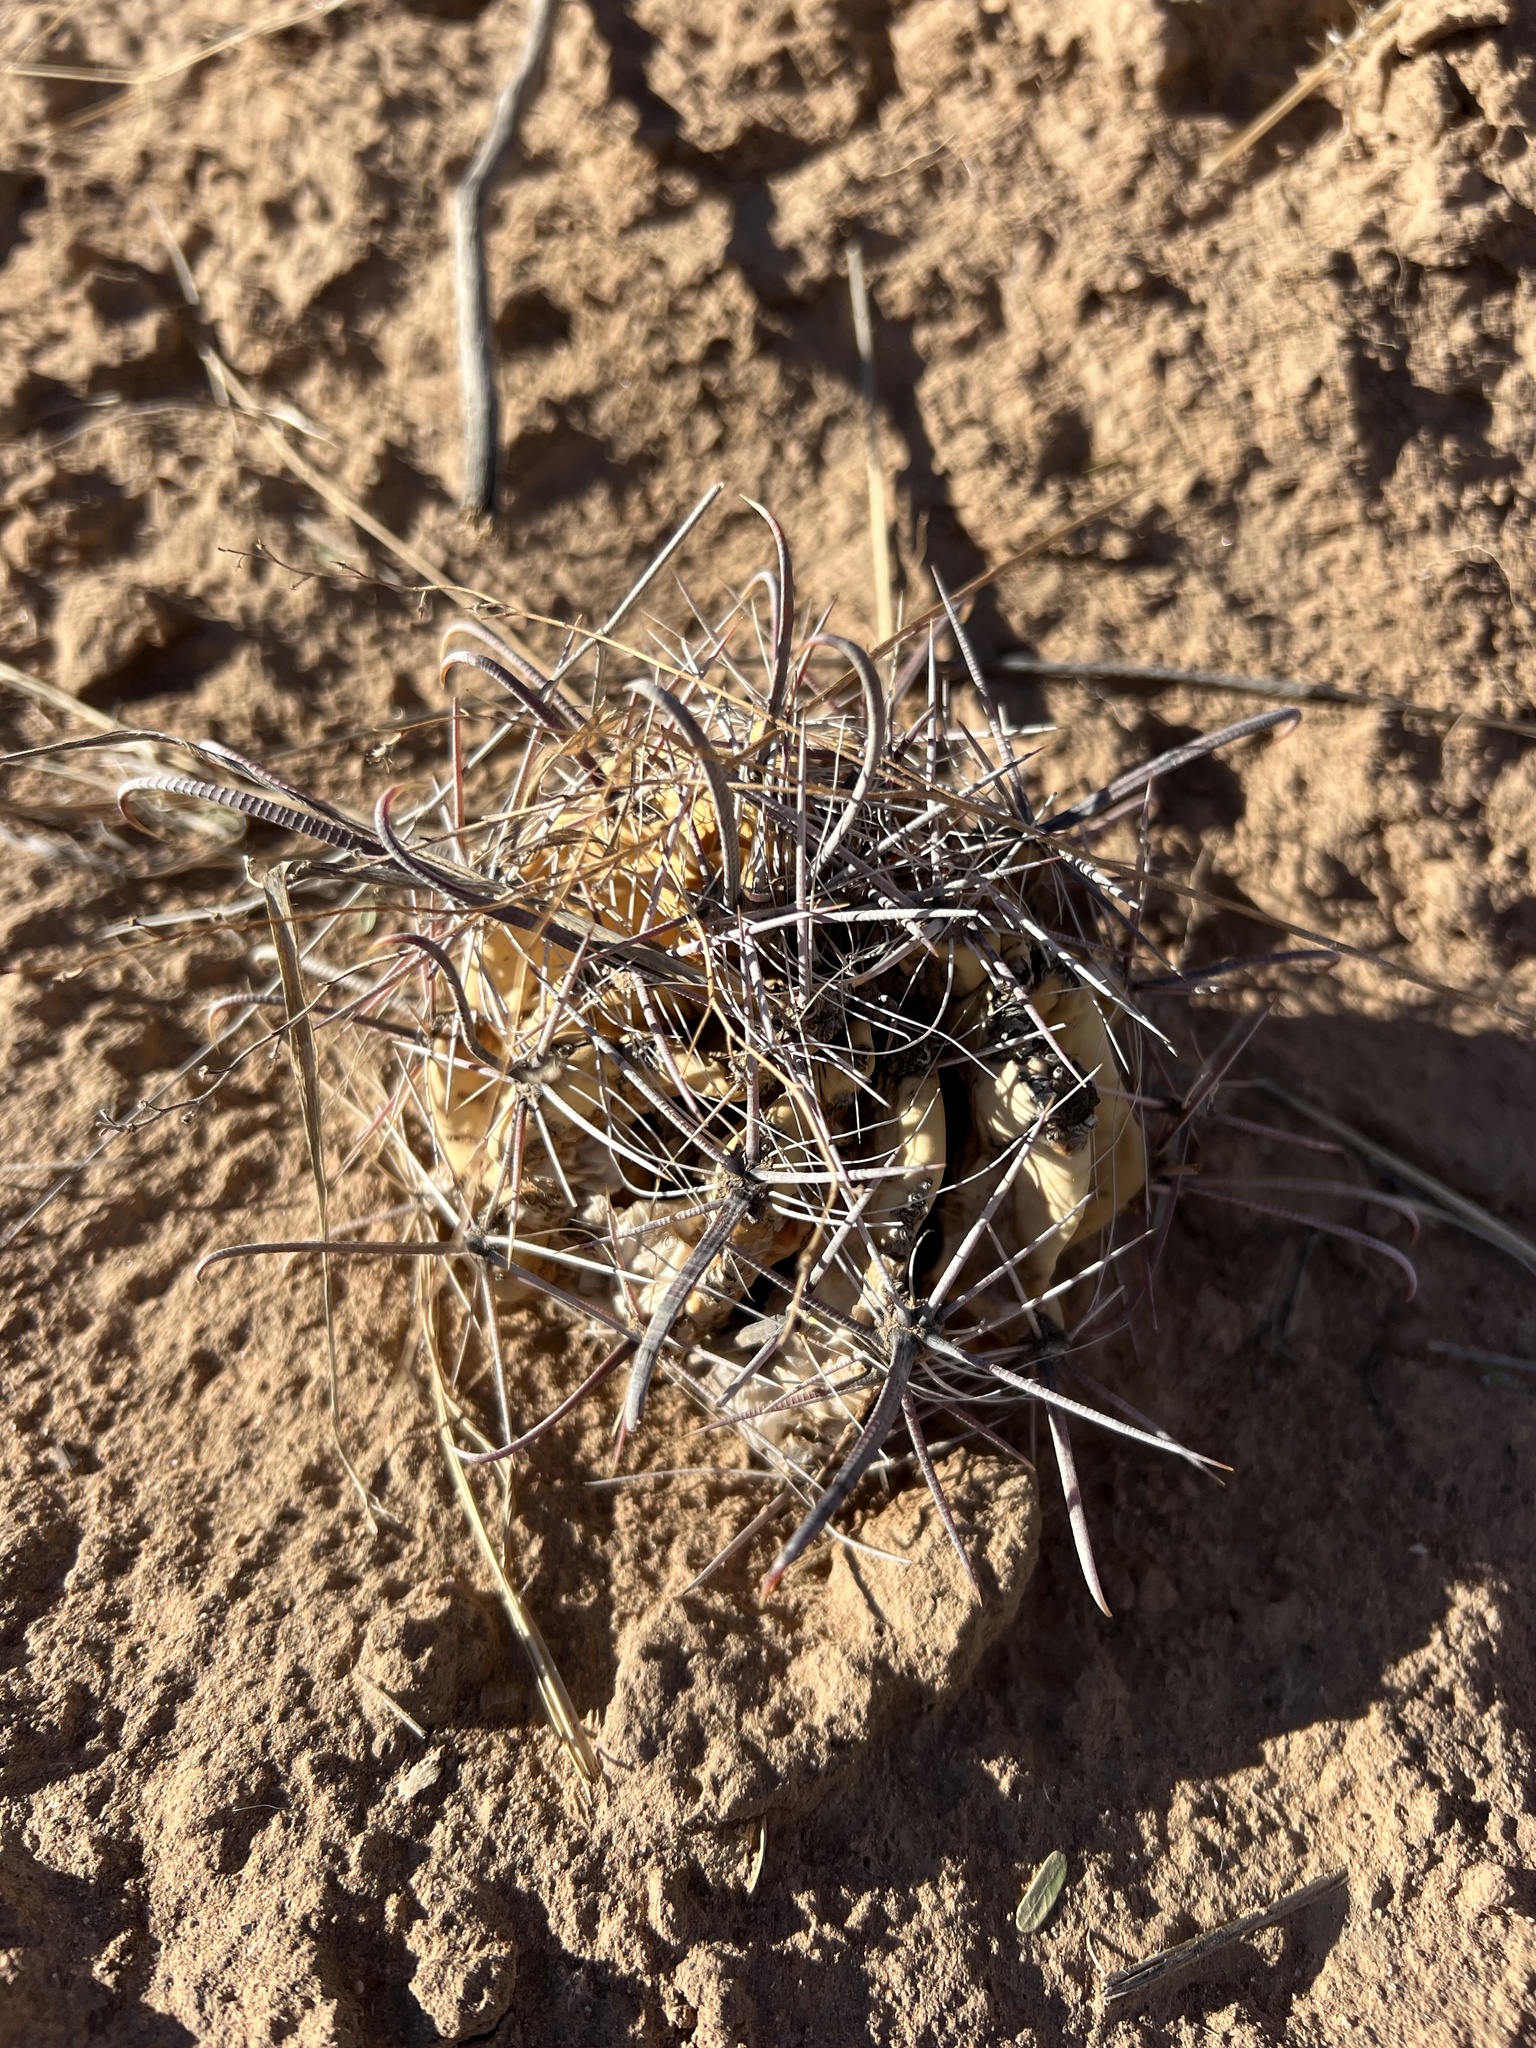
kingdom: Plantae
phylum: Tracheophyta
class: Magnoliopsida
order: Caryophyllales
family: Cactaceae
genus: Ferocactus
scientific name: Ferocactus wislizeni
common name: Candy barrel cactus
